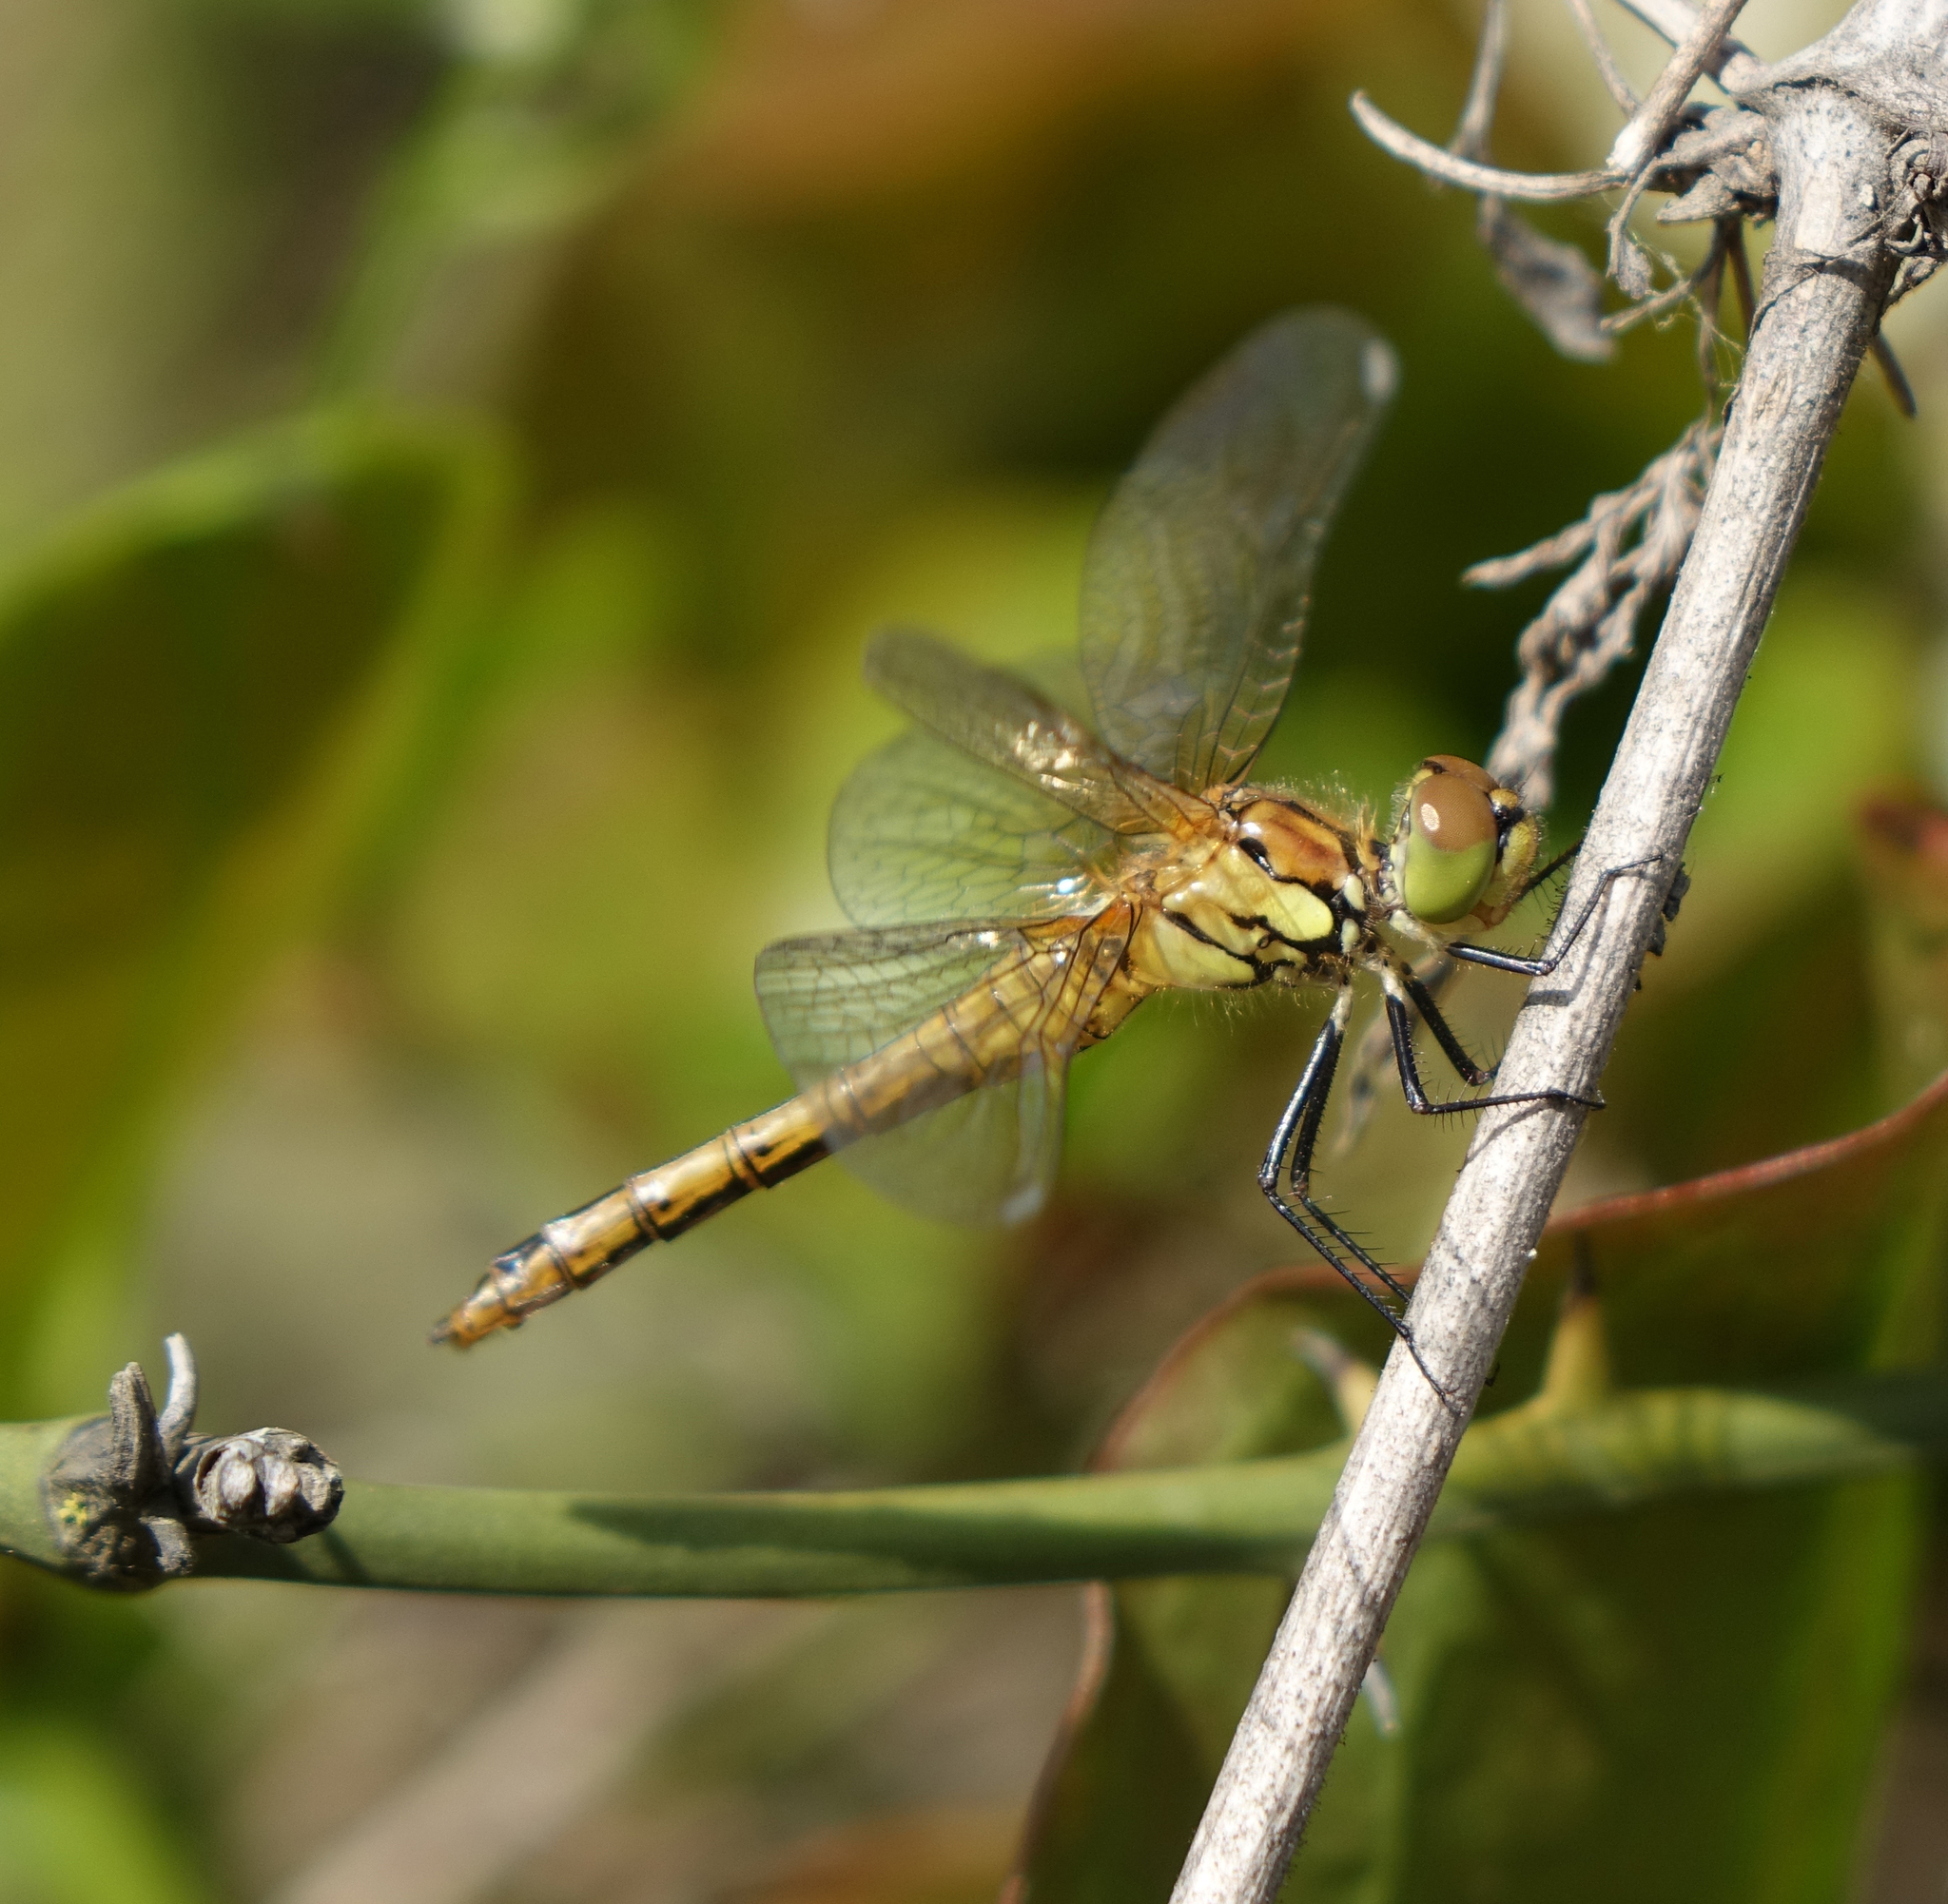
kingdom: Animalia
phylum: Arthropoda
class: Insecta
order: Odonata
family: Libellulidae
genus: Sympetrum
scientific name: Sympetrum sanguineum
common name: Ruddy darter
